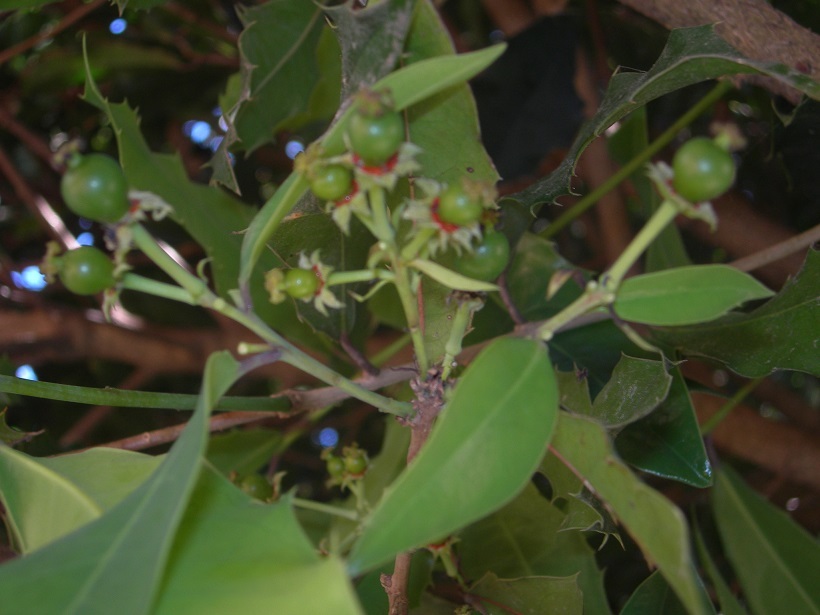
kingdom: Plantae
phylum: Tracheophyta
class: Magnoliopsida
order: Malpighiales
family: Salicaceae
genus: Olmediella
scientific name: Olmediella betschleriana
